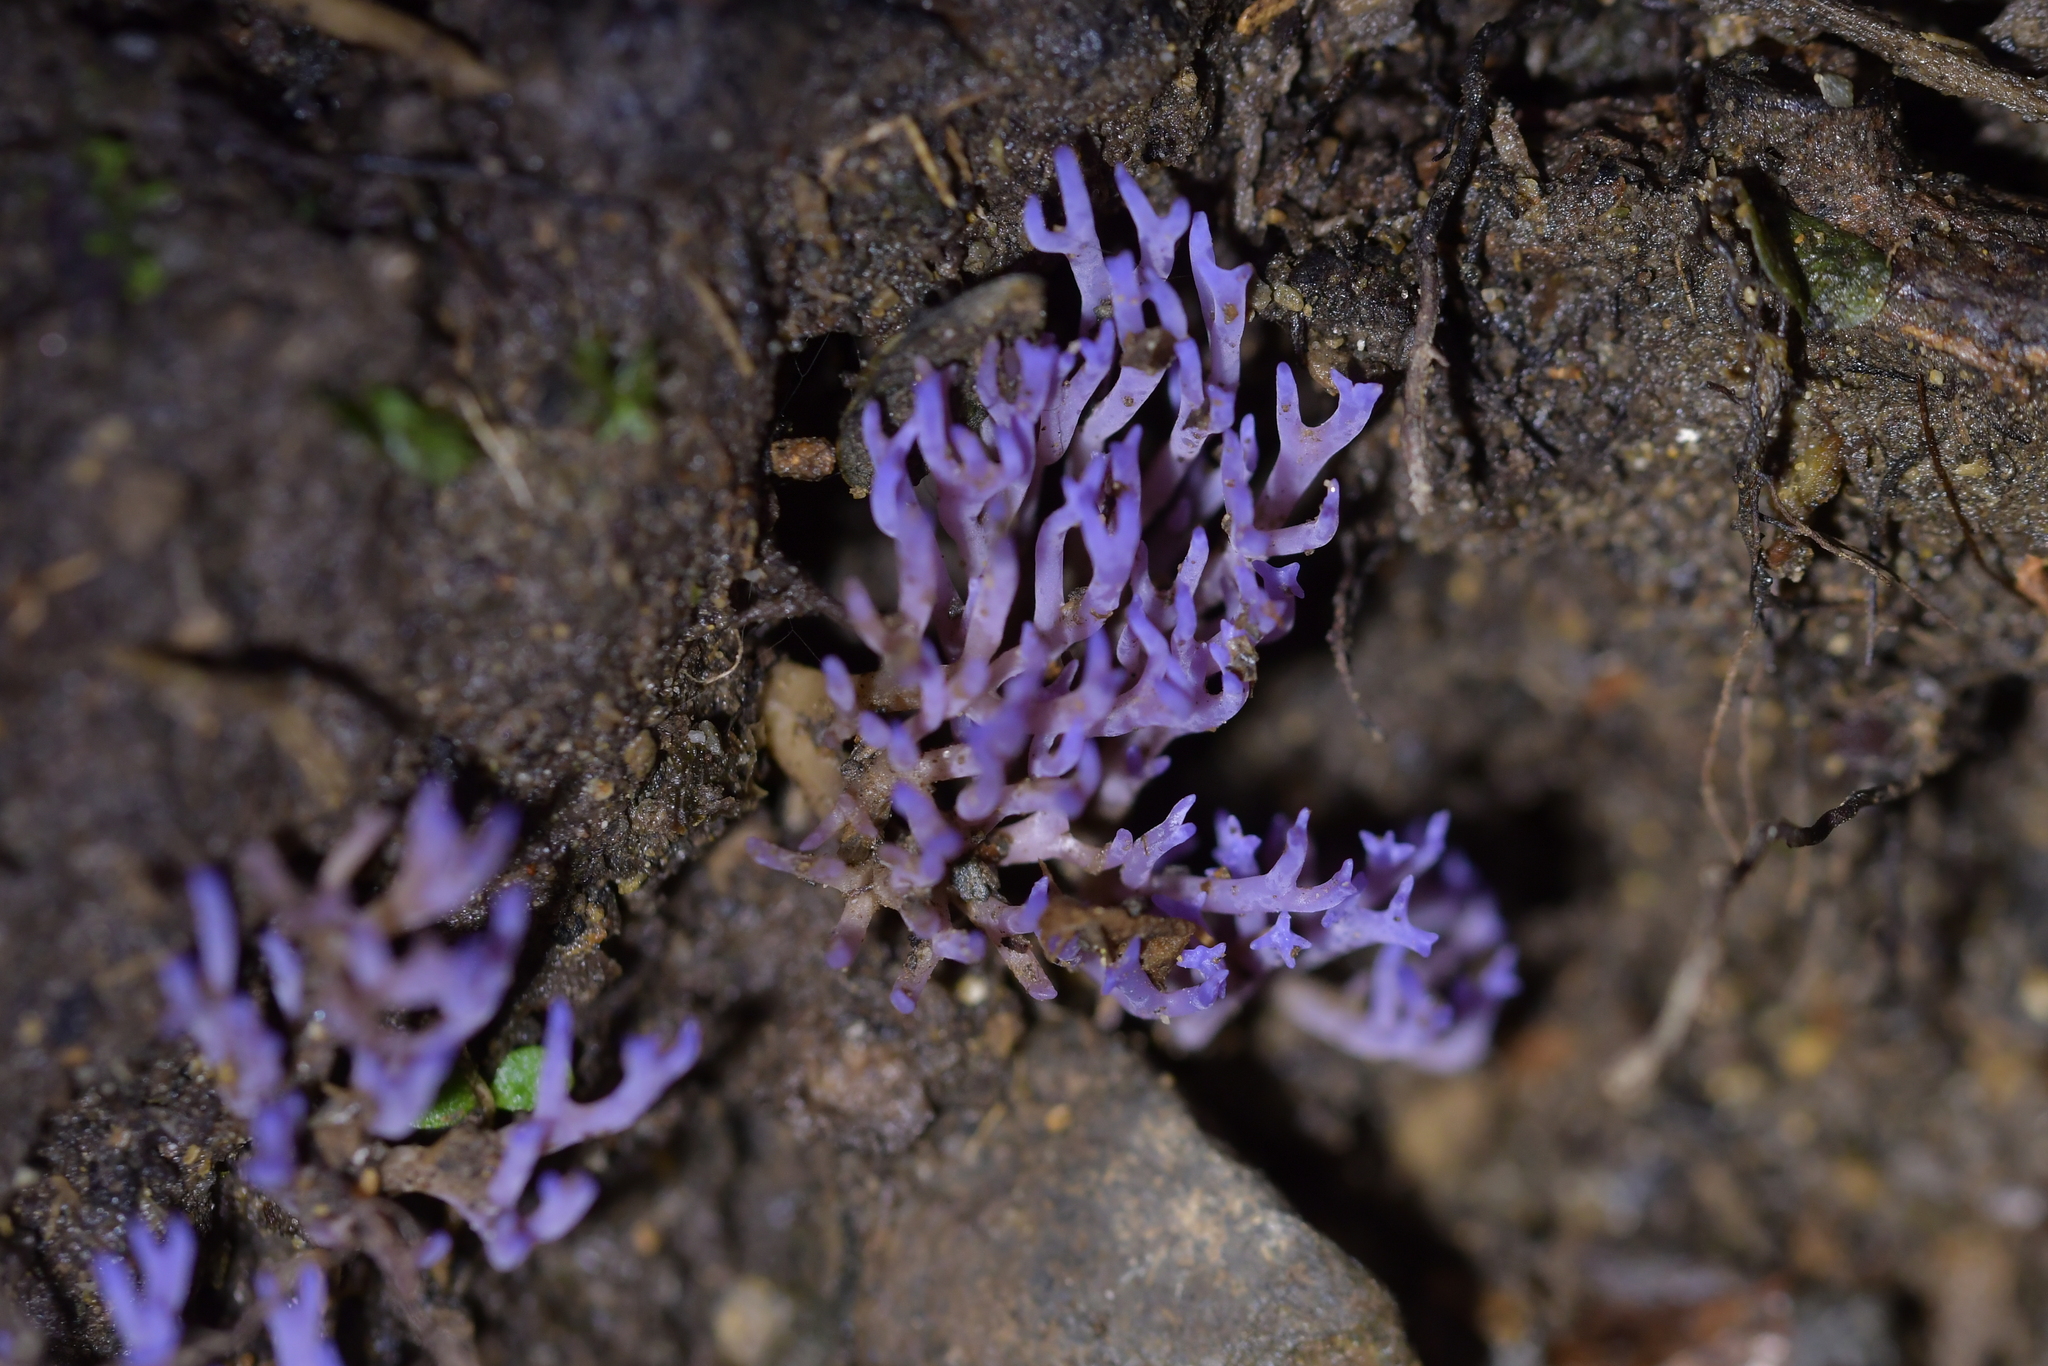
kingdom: Fungi
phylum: Basidiomycota
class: Agaricomycetes
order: Agaricales
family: Clavariaceae
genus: Ramariopsis
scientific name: Ramariopsis pulchella
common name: Lilac coral
